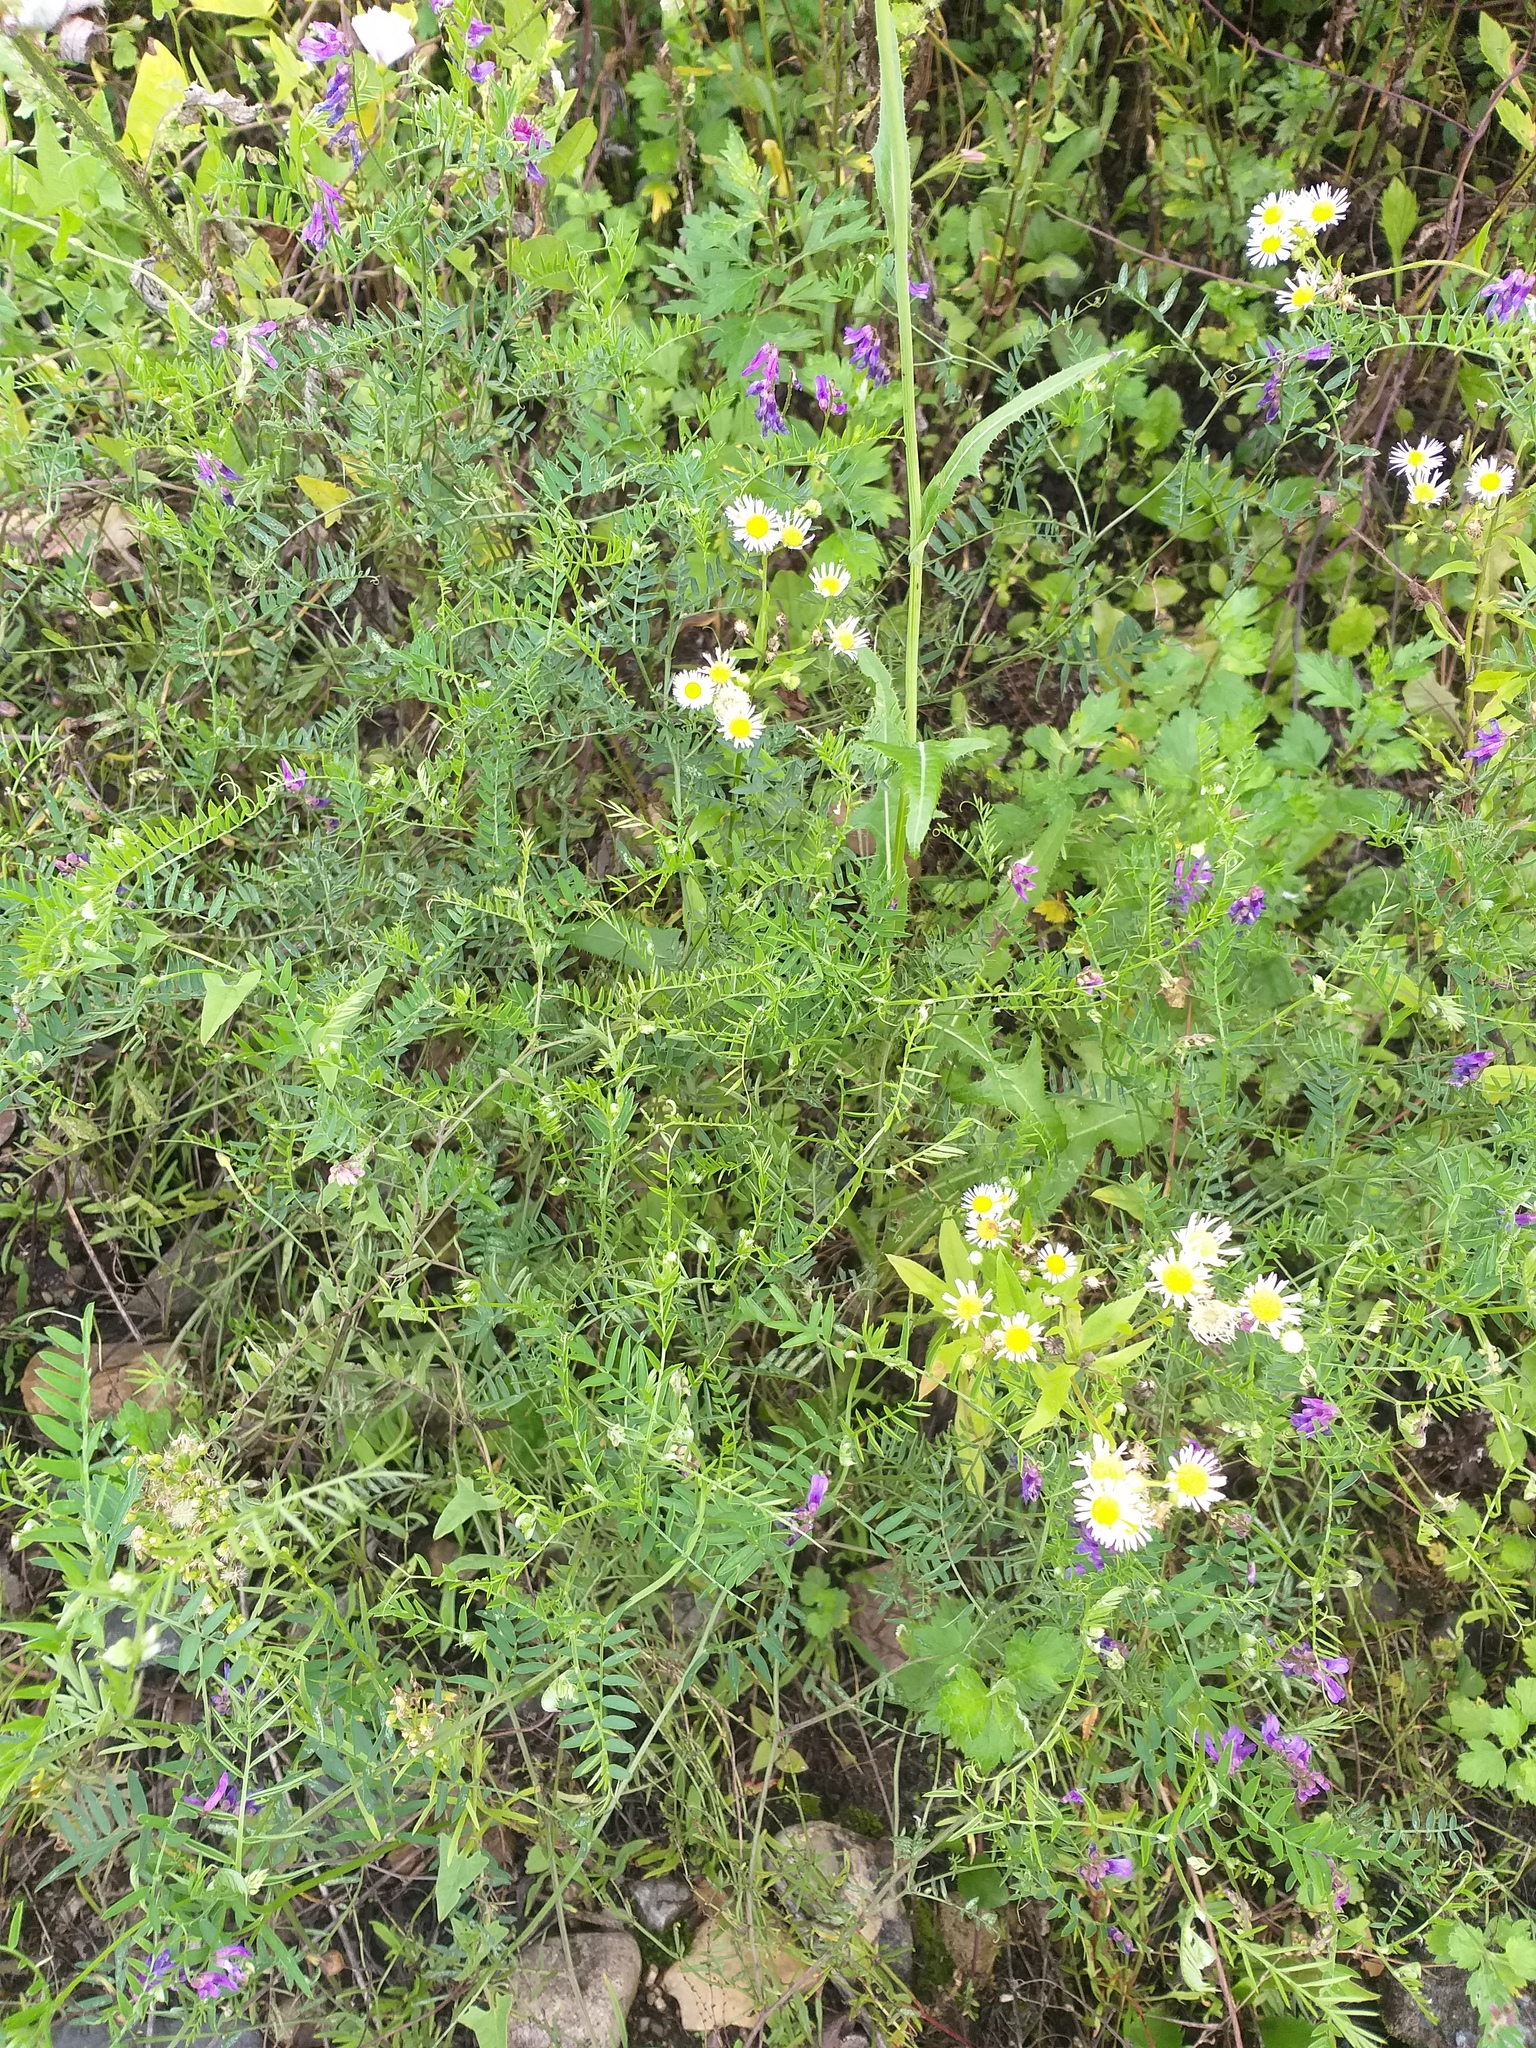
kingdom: Plantae
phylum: Tracheophyta
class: Magnoliopsida
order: Fabales
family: Fabaceae
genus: Vicia
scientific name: Vicia cracca
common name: Bird vetch
